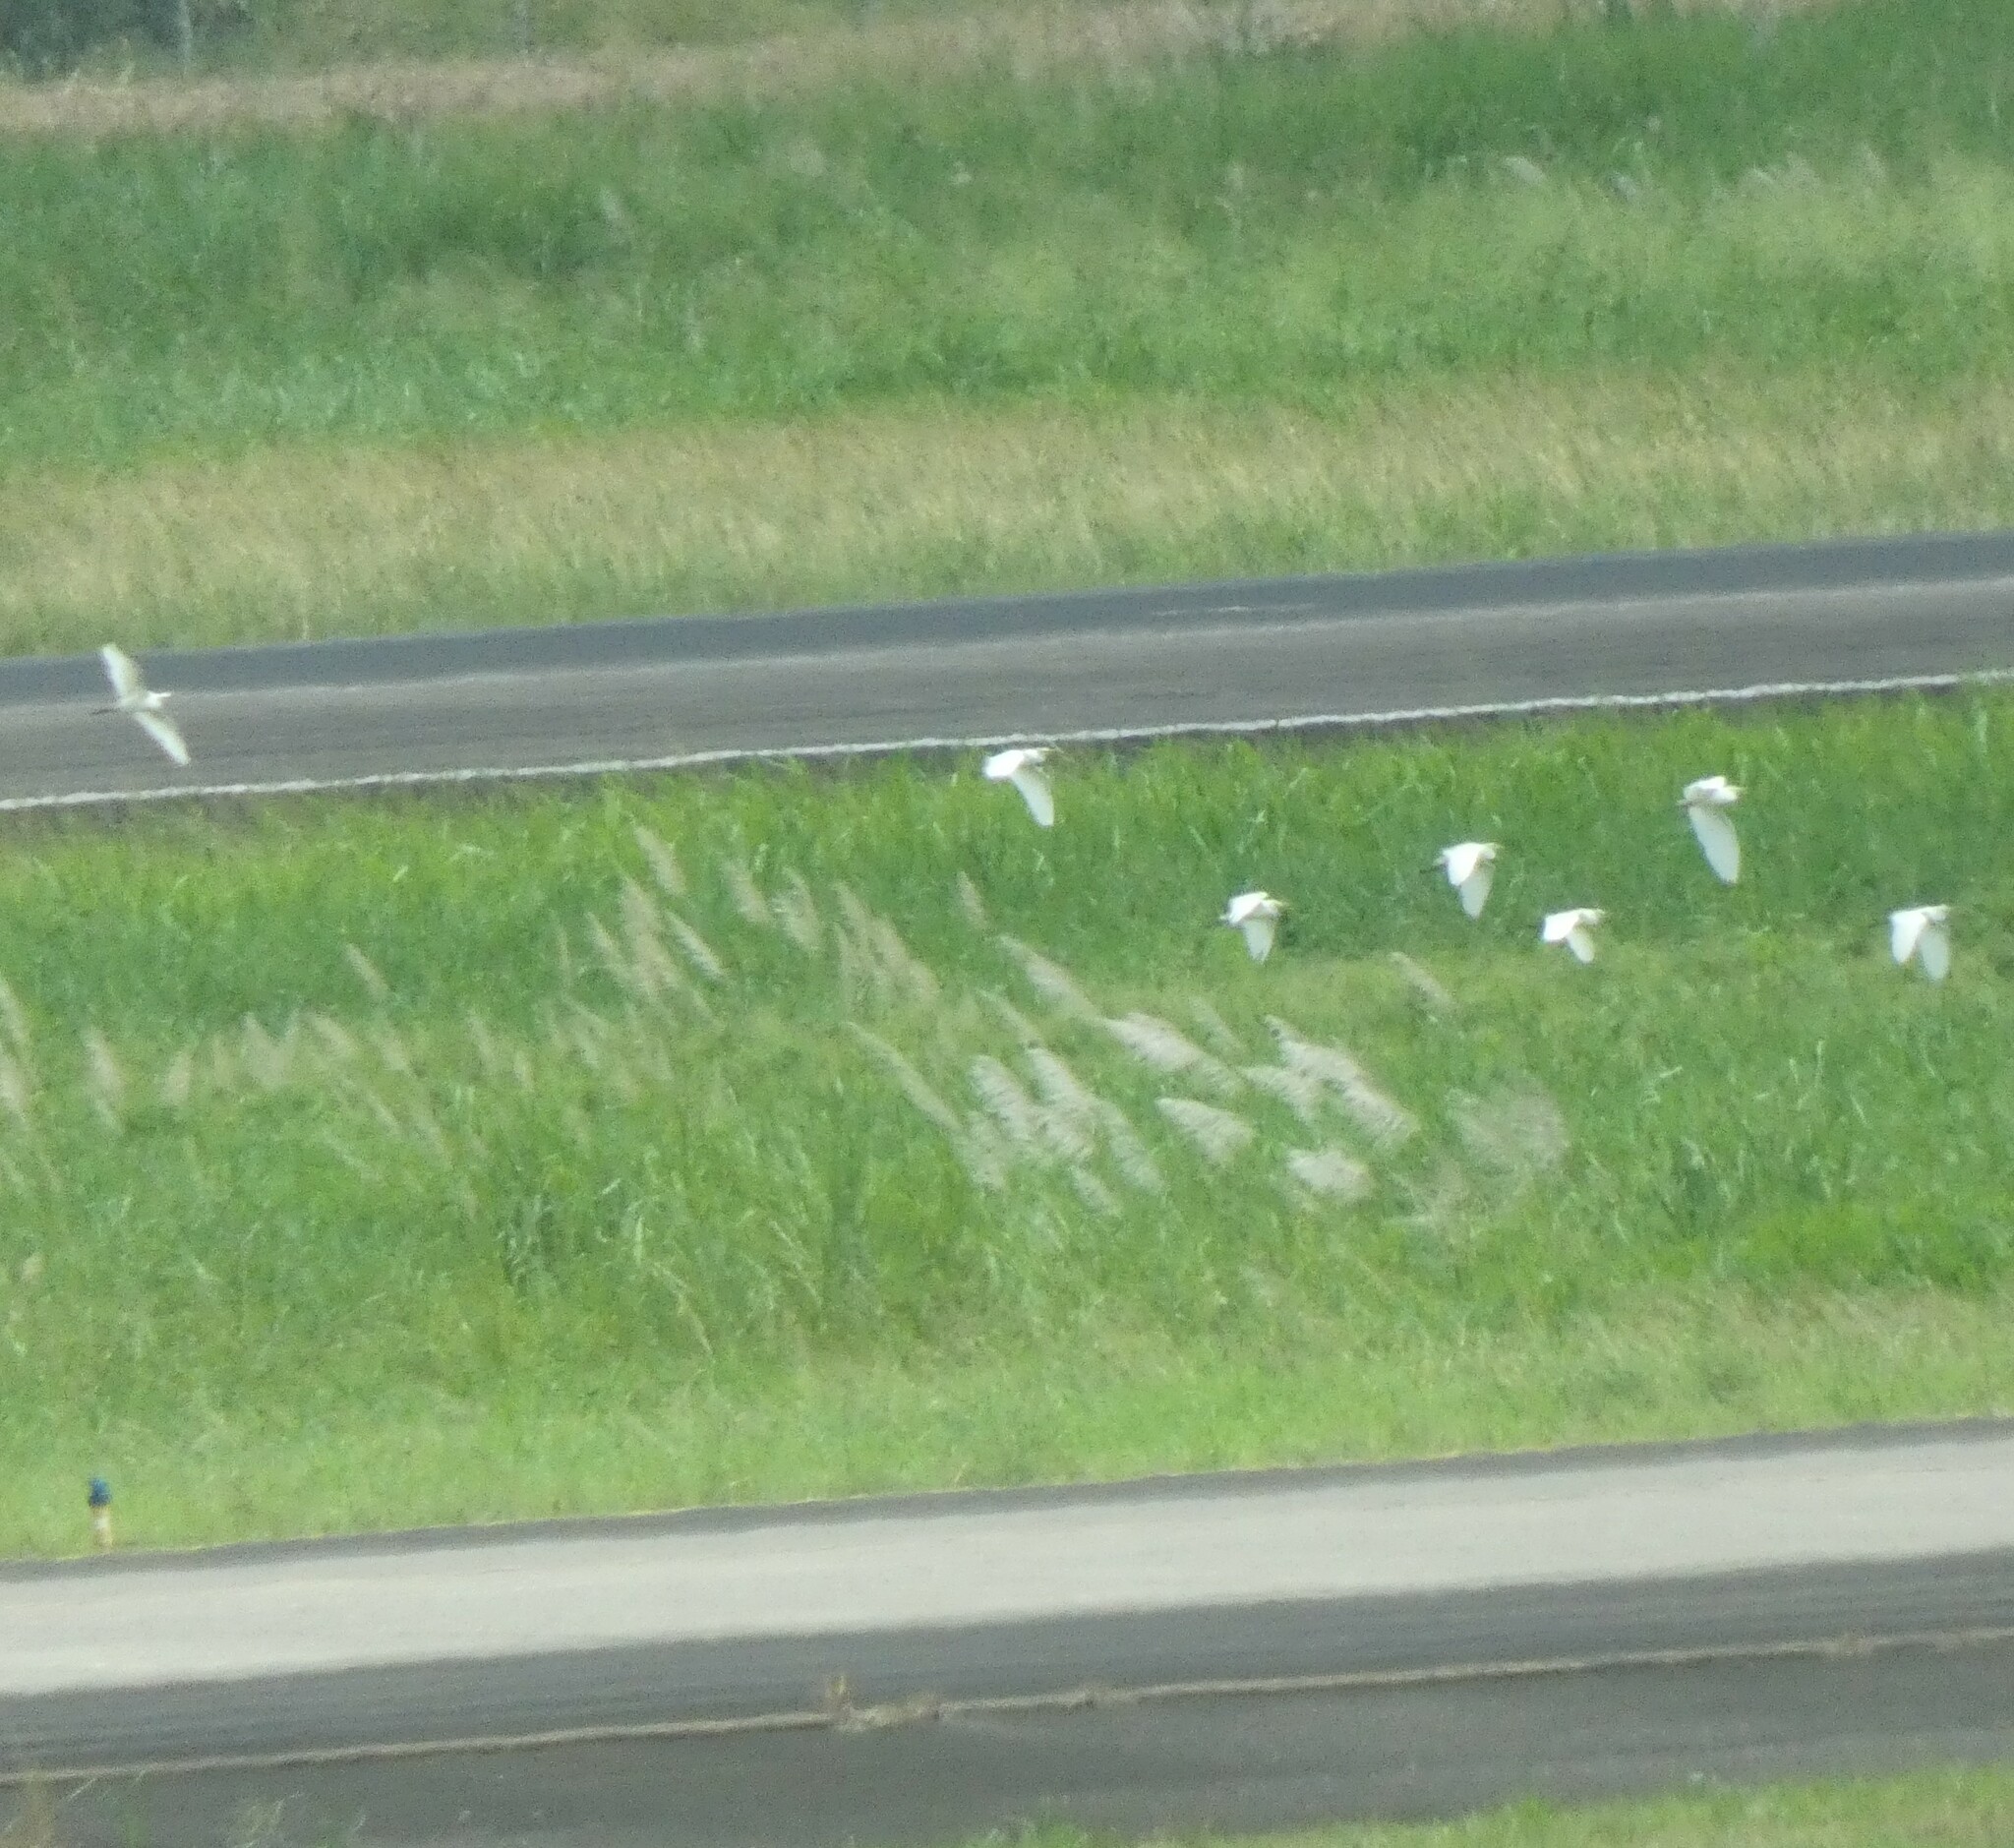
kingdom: Animalia
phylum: Chordata
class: Aves
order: Pelecaniformes
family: Ardeidae
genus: Bubulcus
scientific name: Bubulcus ibis
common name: Cattle egret
